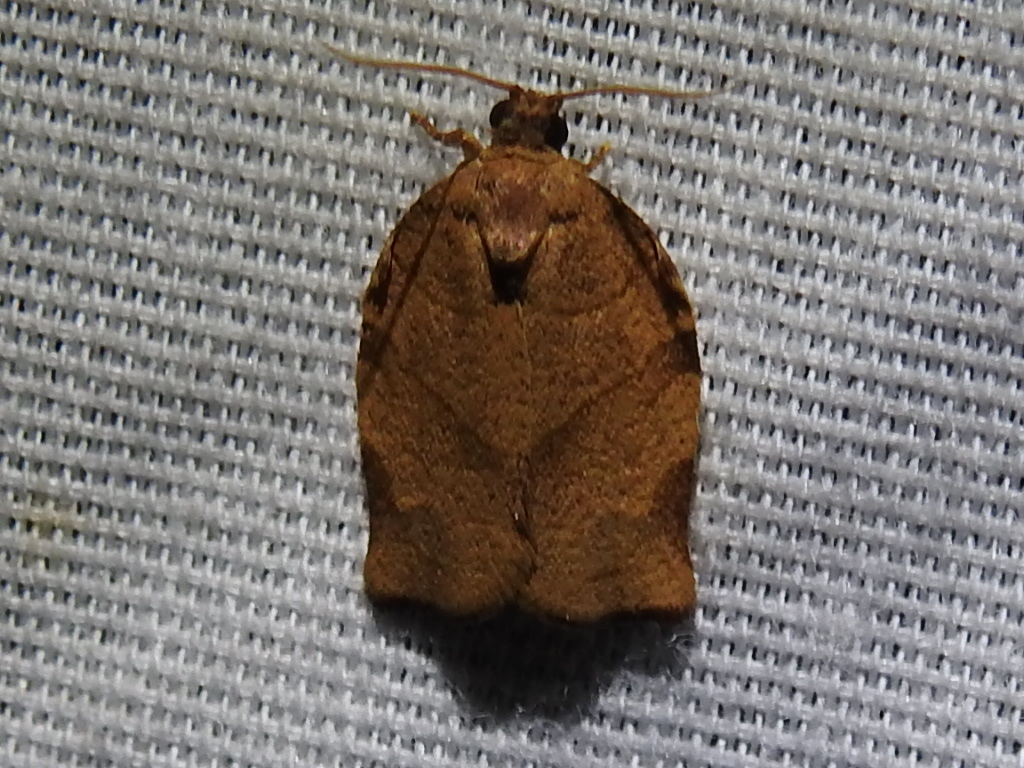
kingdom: Animalia
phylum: Arthropoda
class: Insecta
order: Lepidoptera
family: Tortricidae
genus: Choristoneura
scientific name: Choristoneura rosaceana
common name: Oblique-banded leafroller moth
